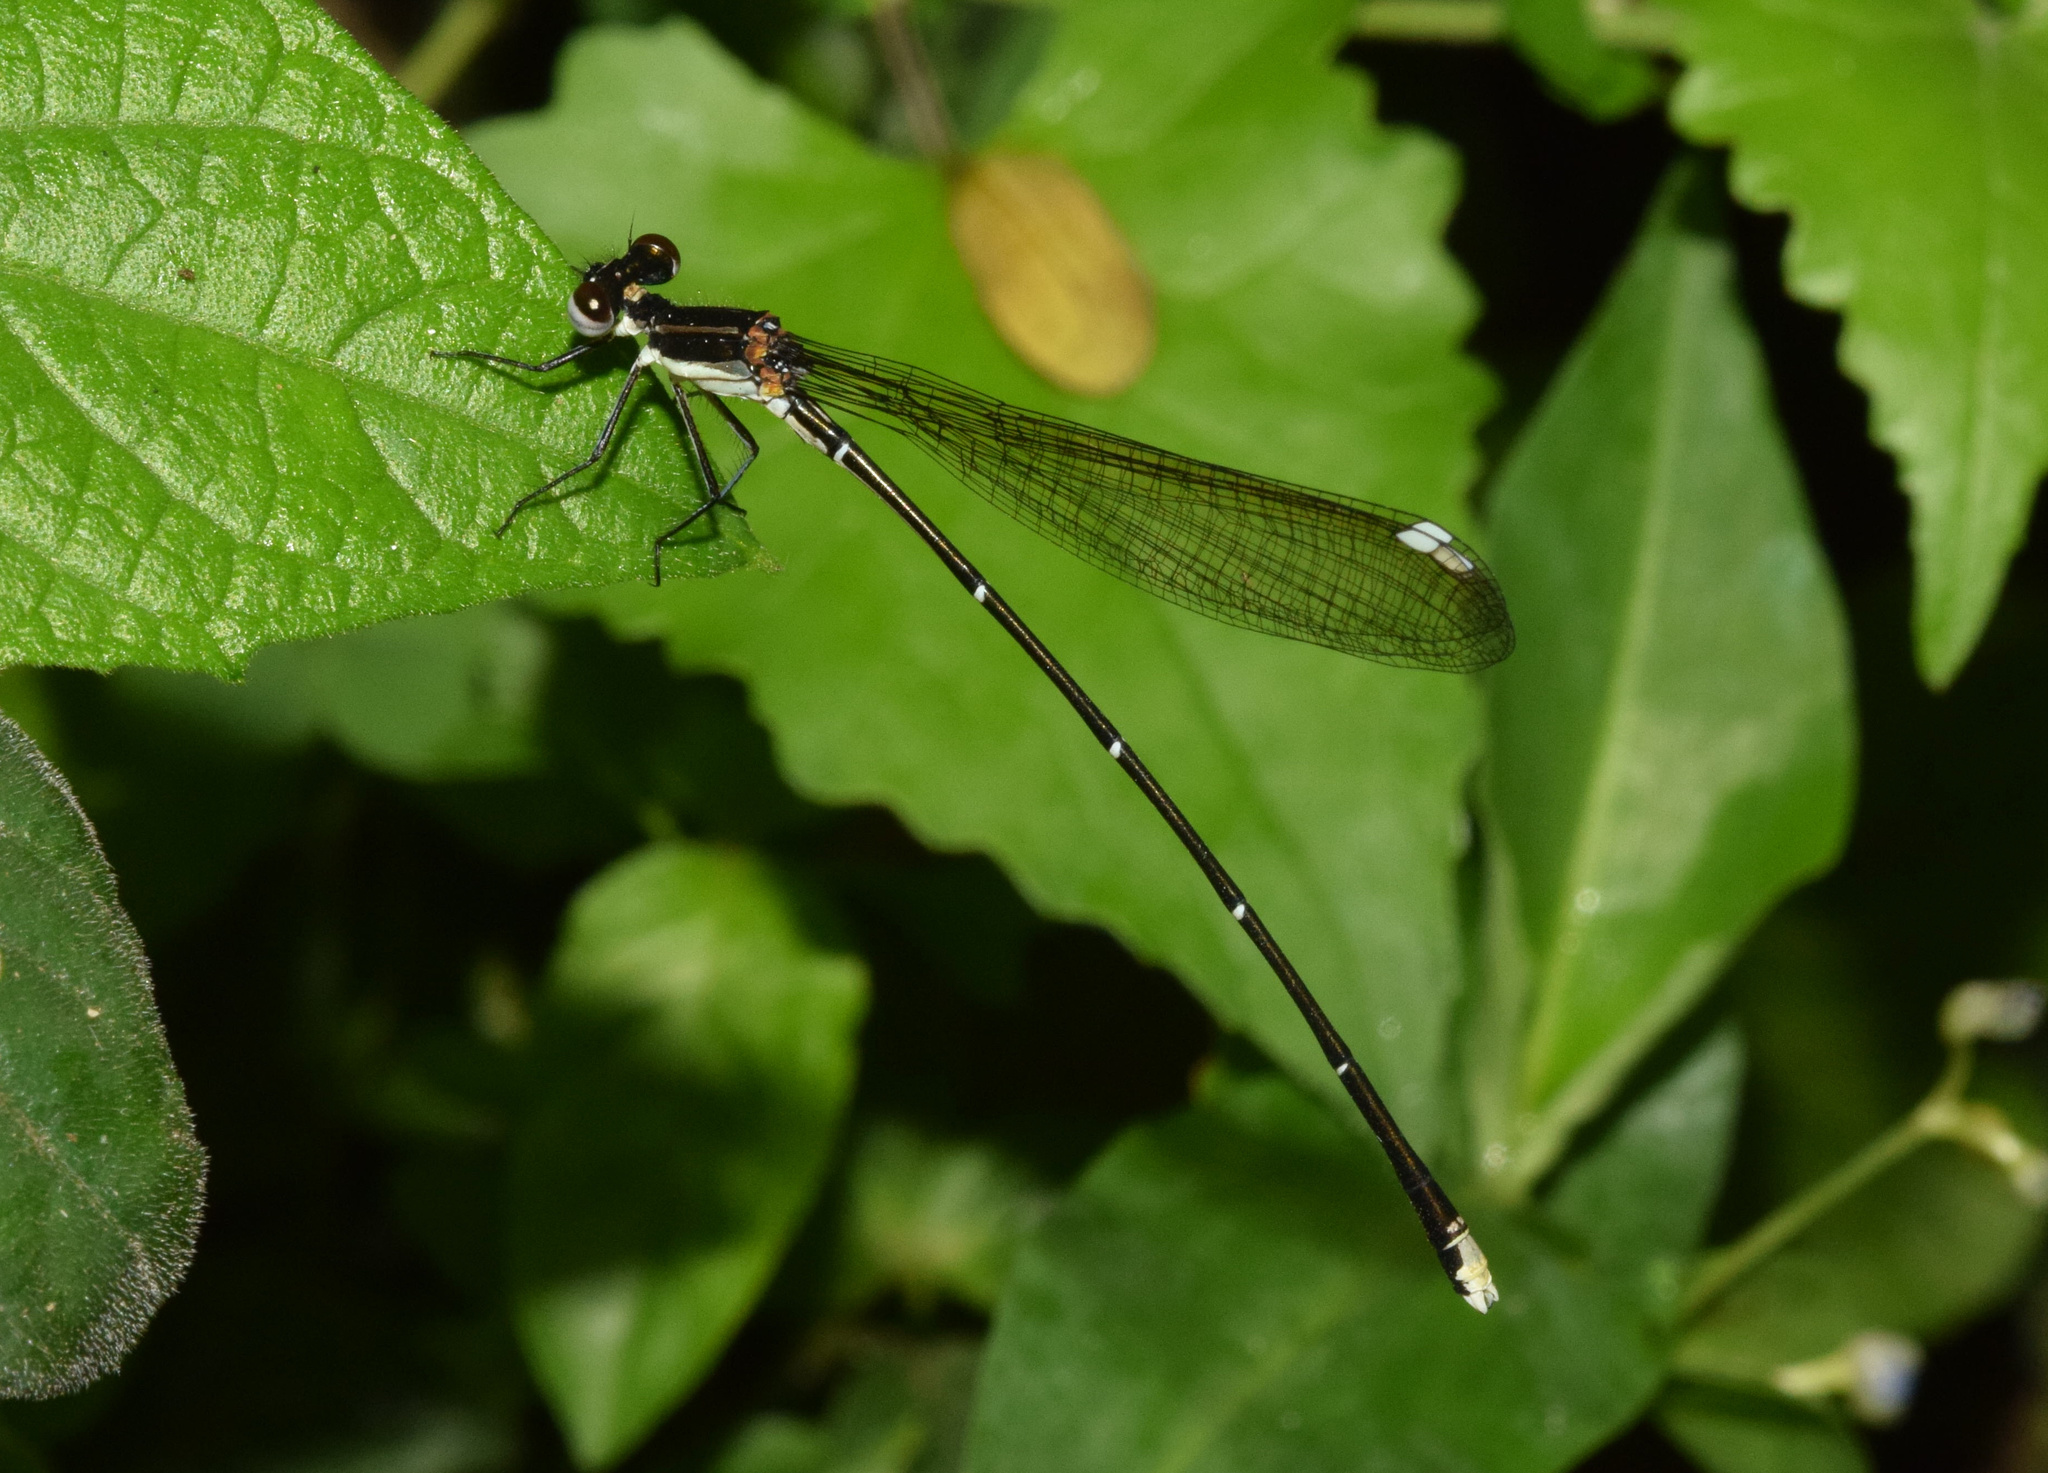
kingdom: Animalia
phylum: Arthropoda
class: Insecta
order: Odonata
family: Platycnemididae
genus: Allocnemis
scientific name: Allocnemis leucosticta
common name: Goldtail
